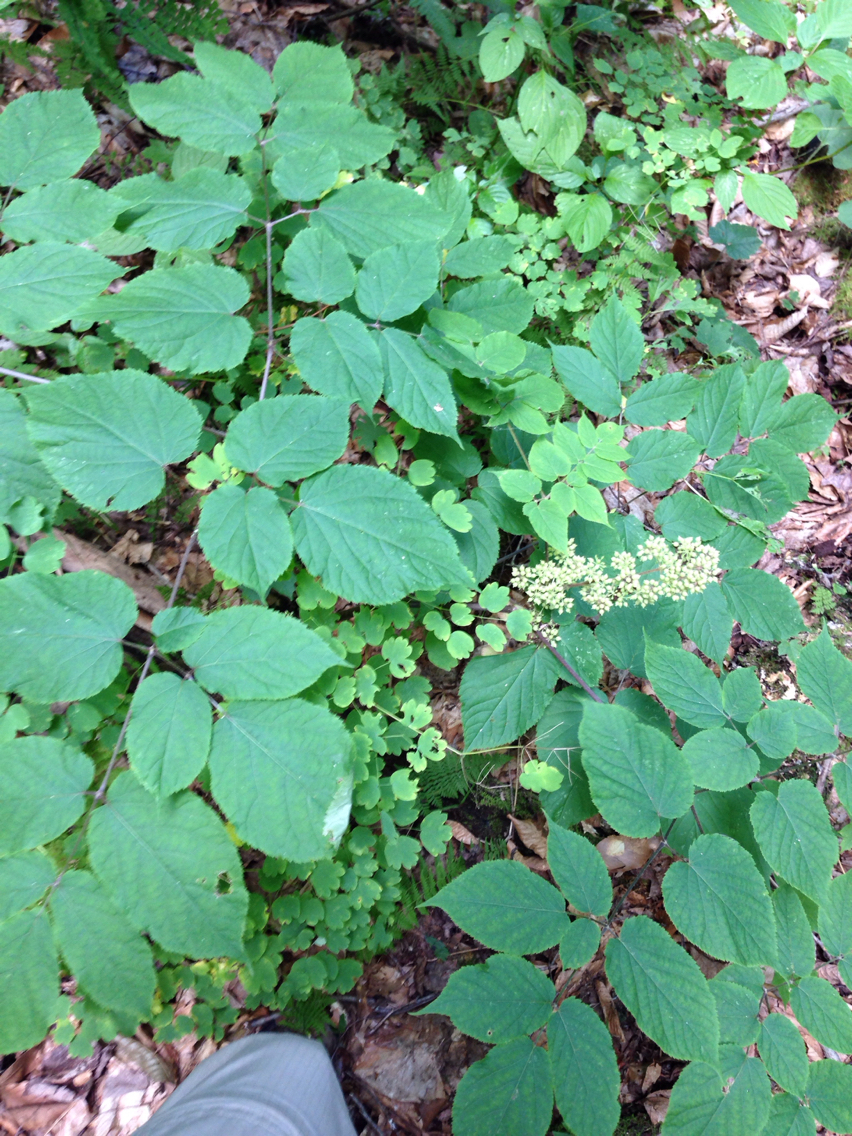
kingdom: Plantae
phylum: Tracheophyta
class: Magnoliopsida
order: Apiales
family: Araliaceae
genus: Aralia
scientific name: Aralia racemosa
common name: American-spikenard
